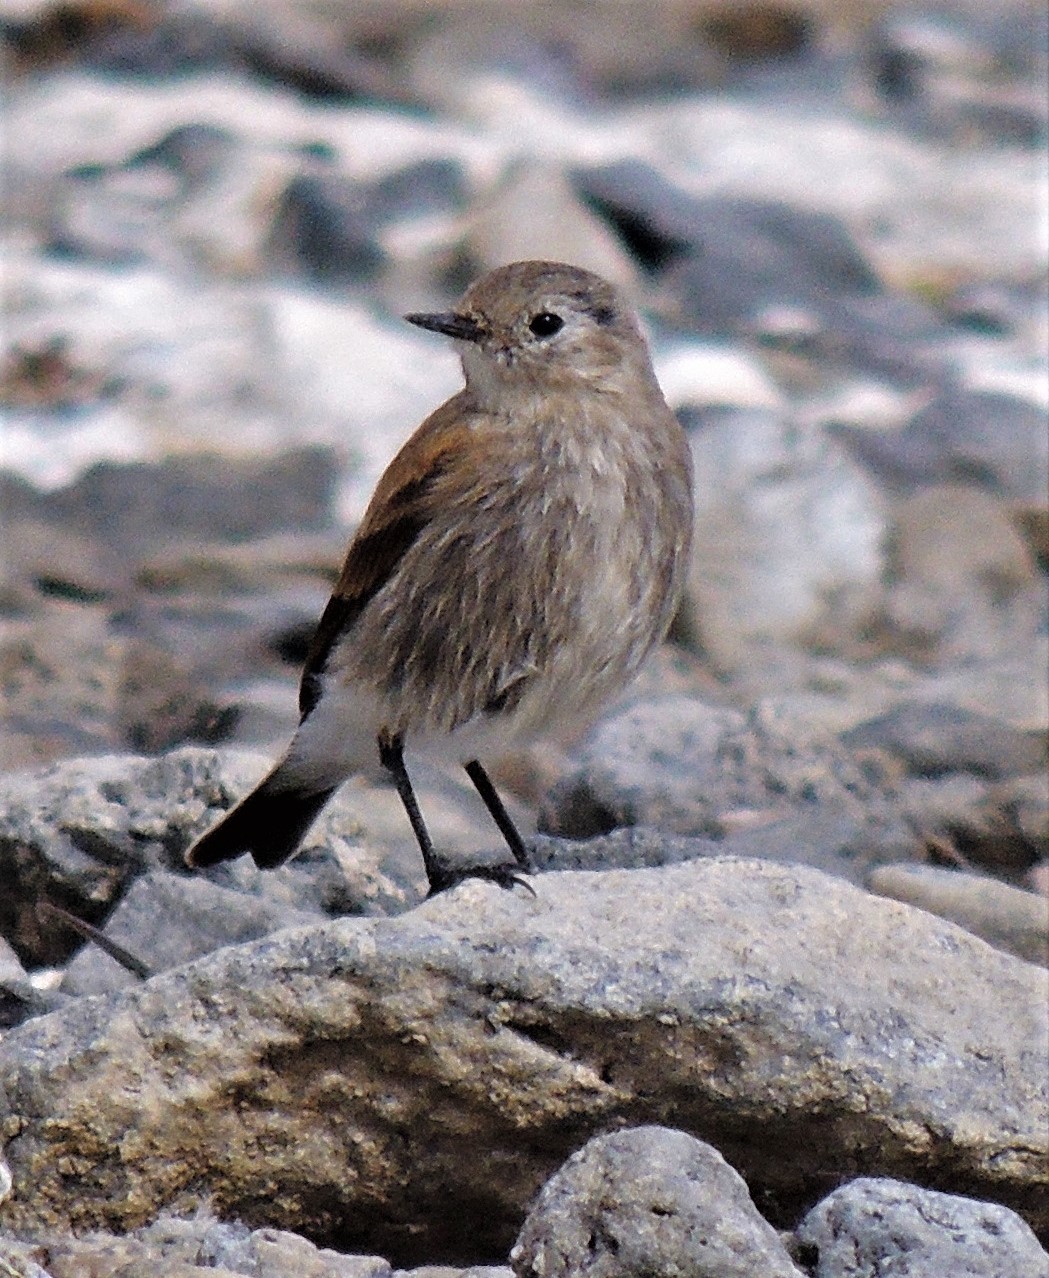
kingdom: Animalia
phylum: Chordata
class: Aves
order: Passeriformes
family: Tyrannidae
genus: Lessonia
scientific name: Lessonia rufa
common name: Austral negrito
